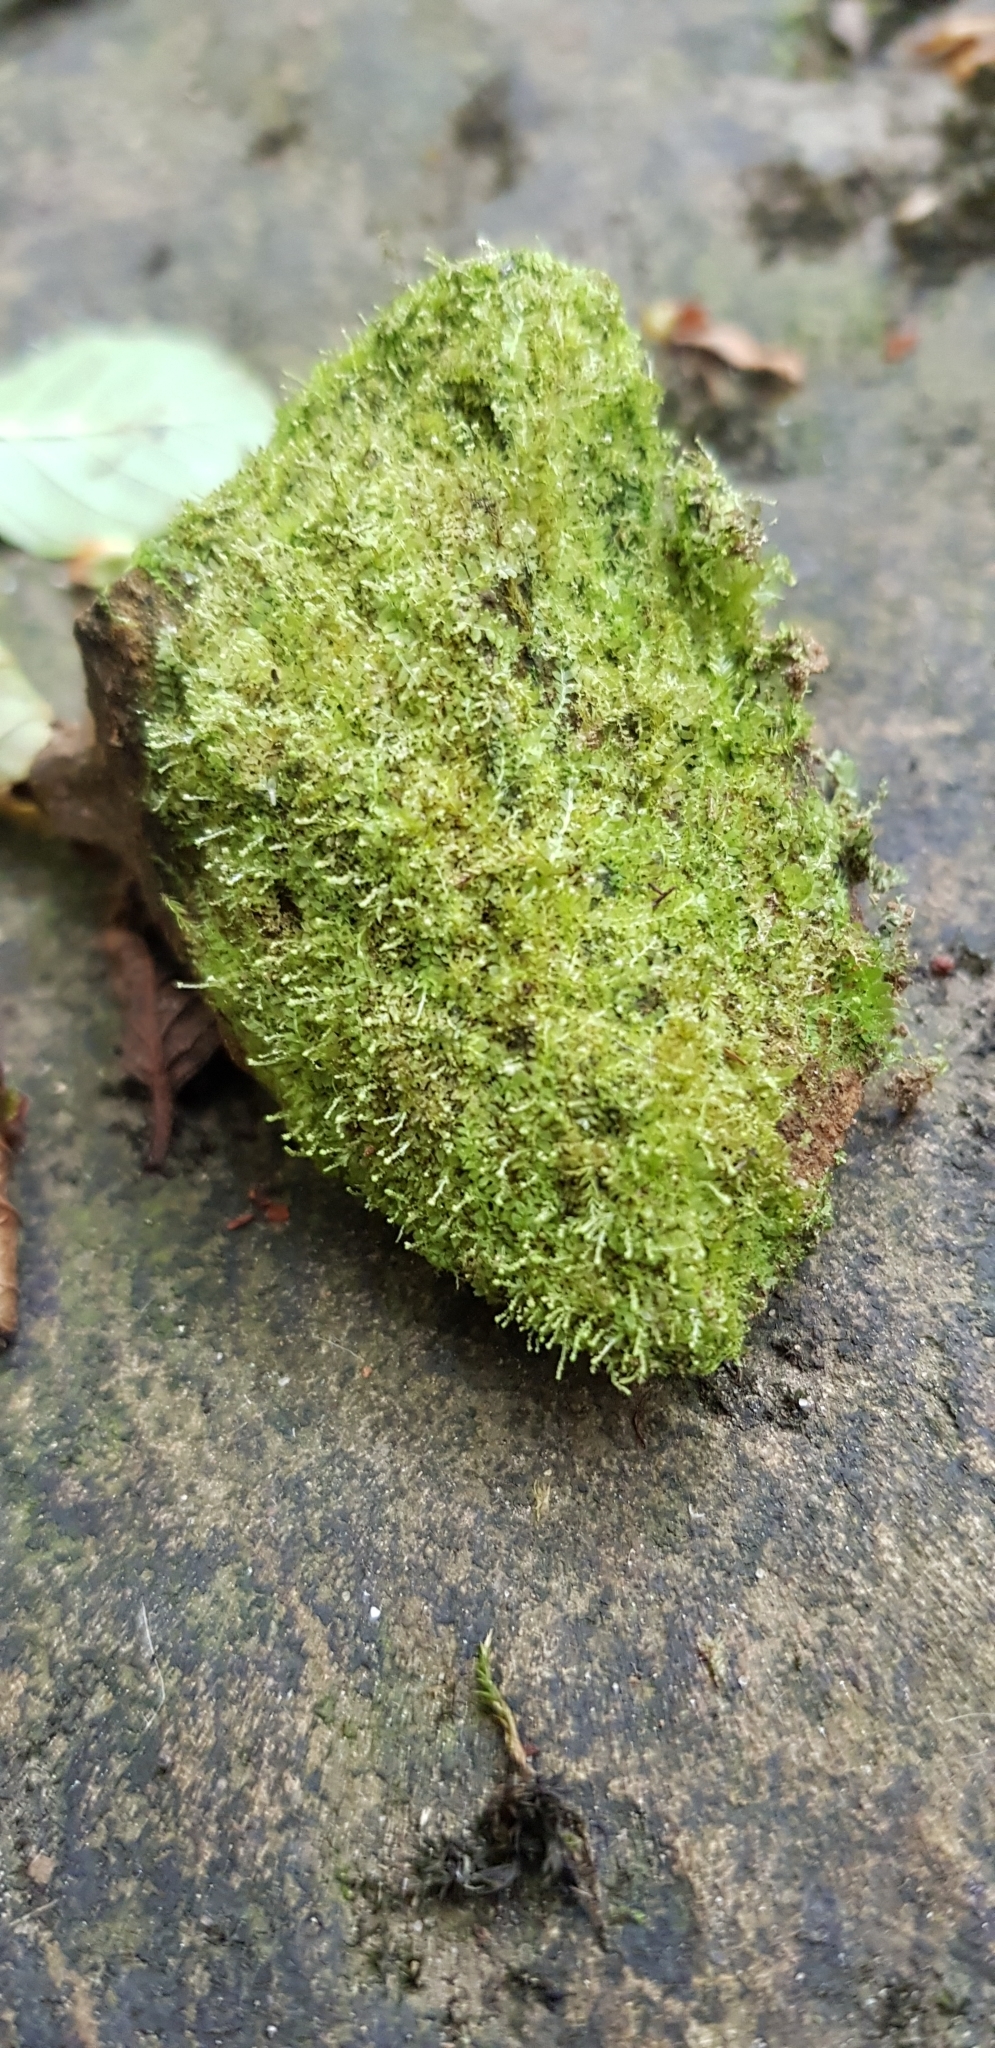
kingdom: Plantae
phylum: Marchantiophyta
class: Jungermanniopsida
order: Jungermanniales
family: Calypogeiaceae
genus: Asperifolia
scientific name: Asperifolia arguta
